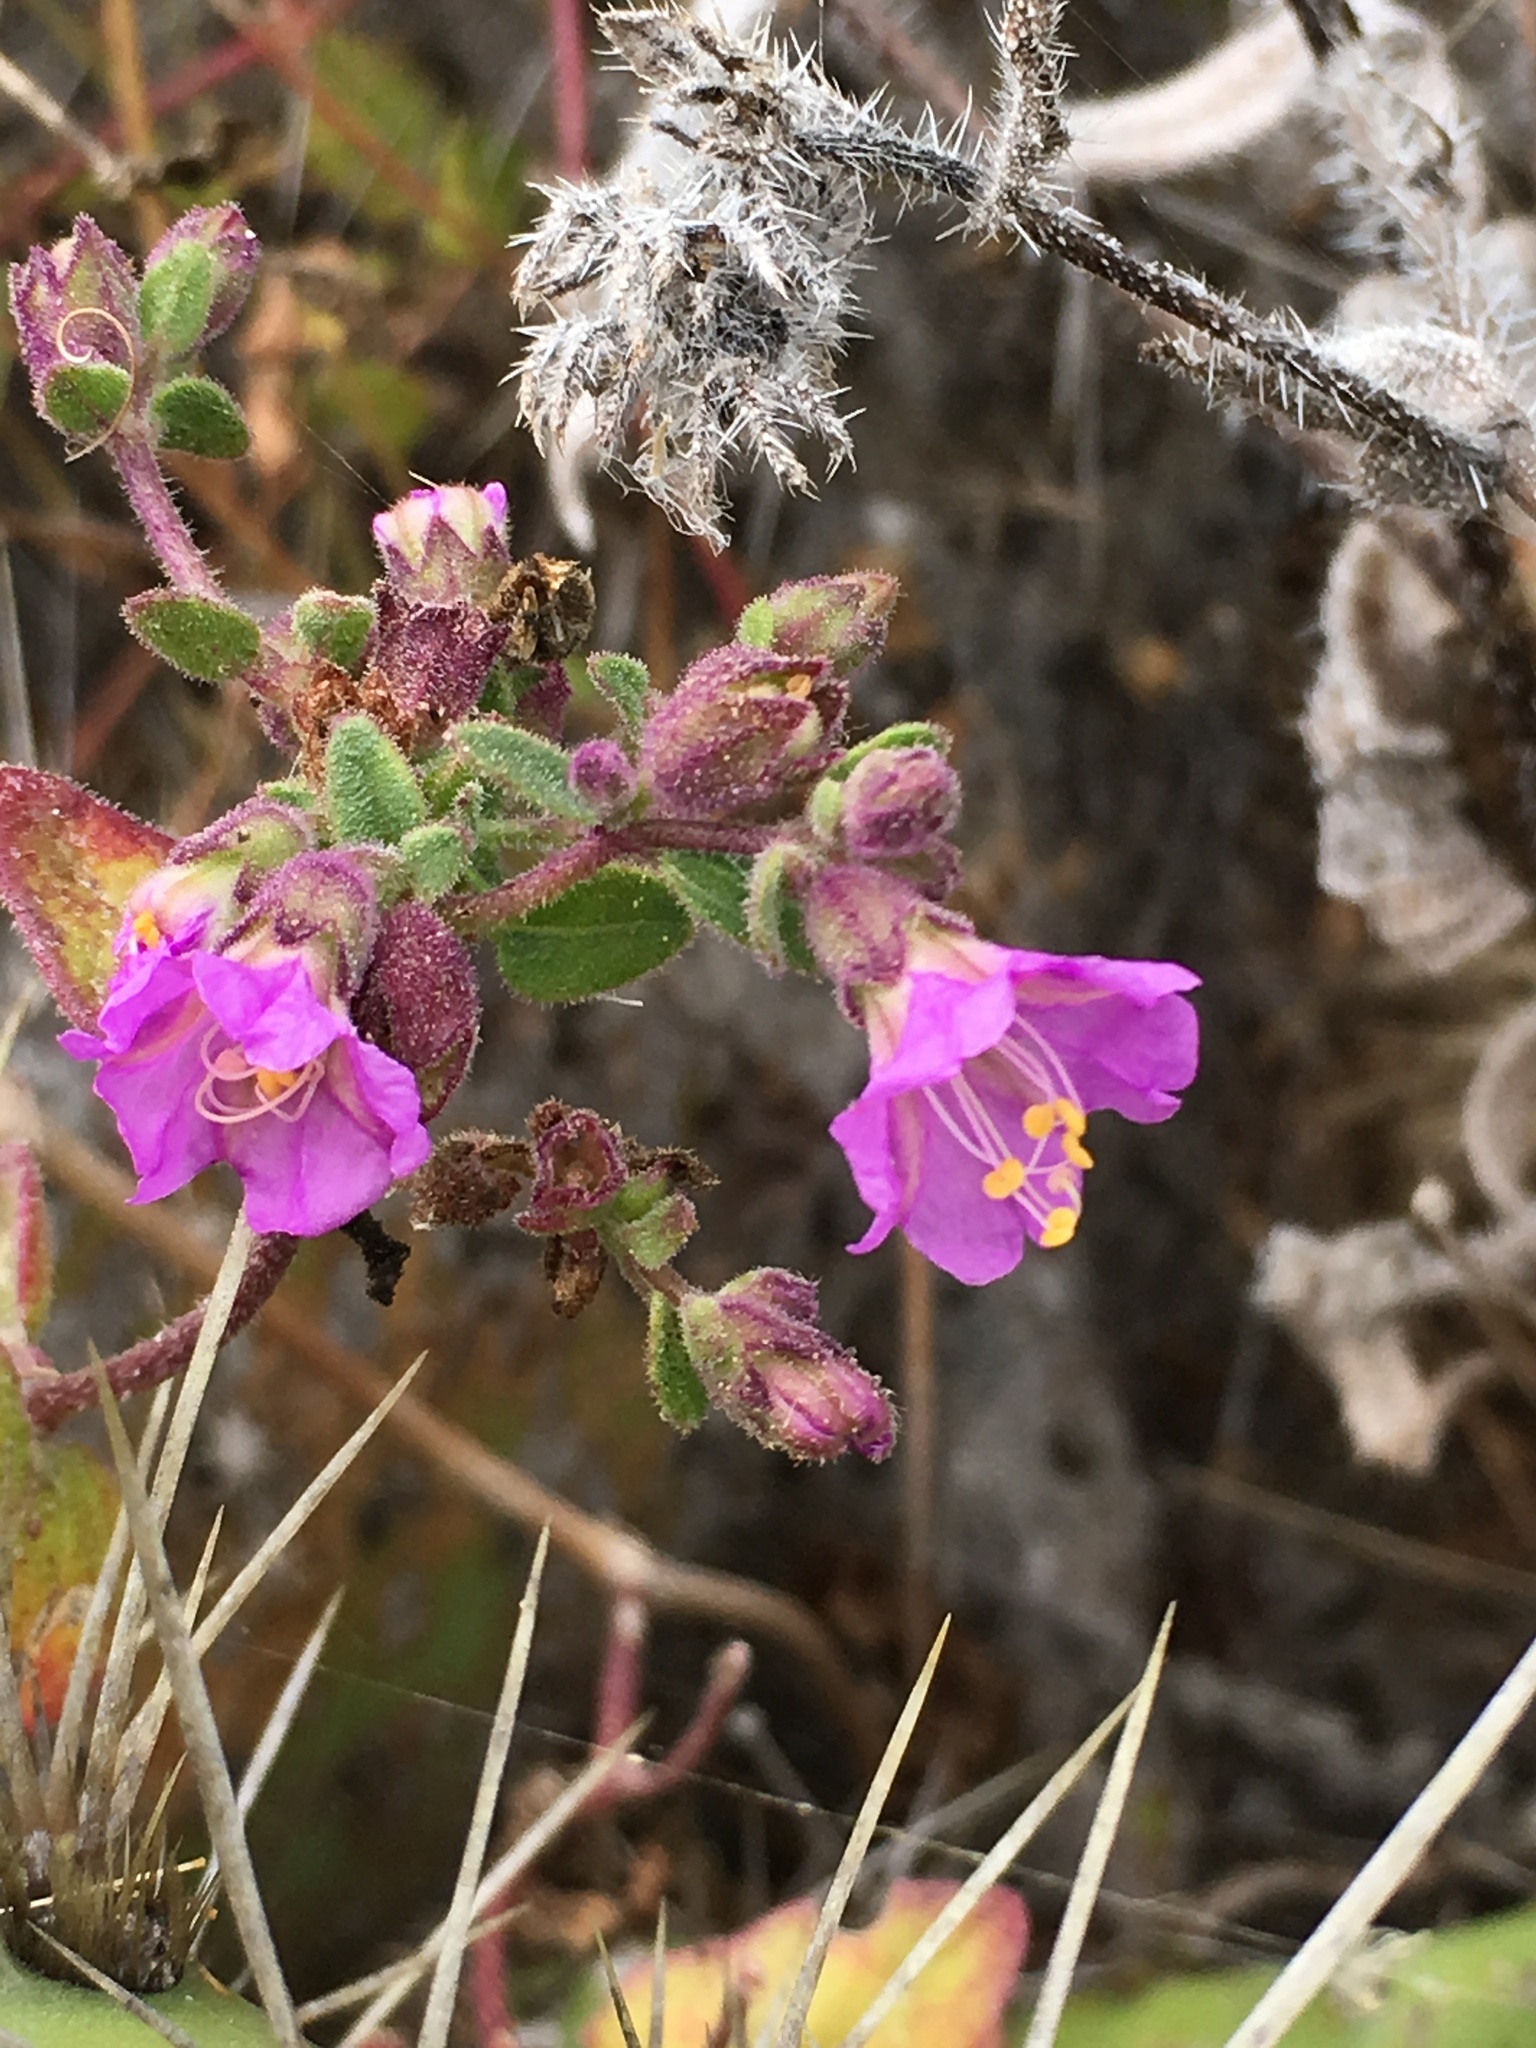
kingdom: Plantae
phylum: Tracheophyta
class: Magnoliopsida
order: Caryophyllales
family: Nyctaginaceae
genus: Mirabilis
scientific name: Mirabilis laevis
